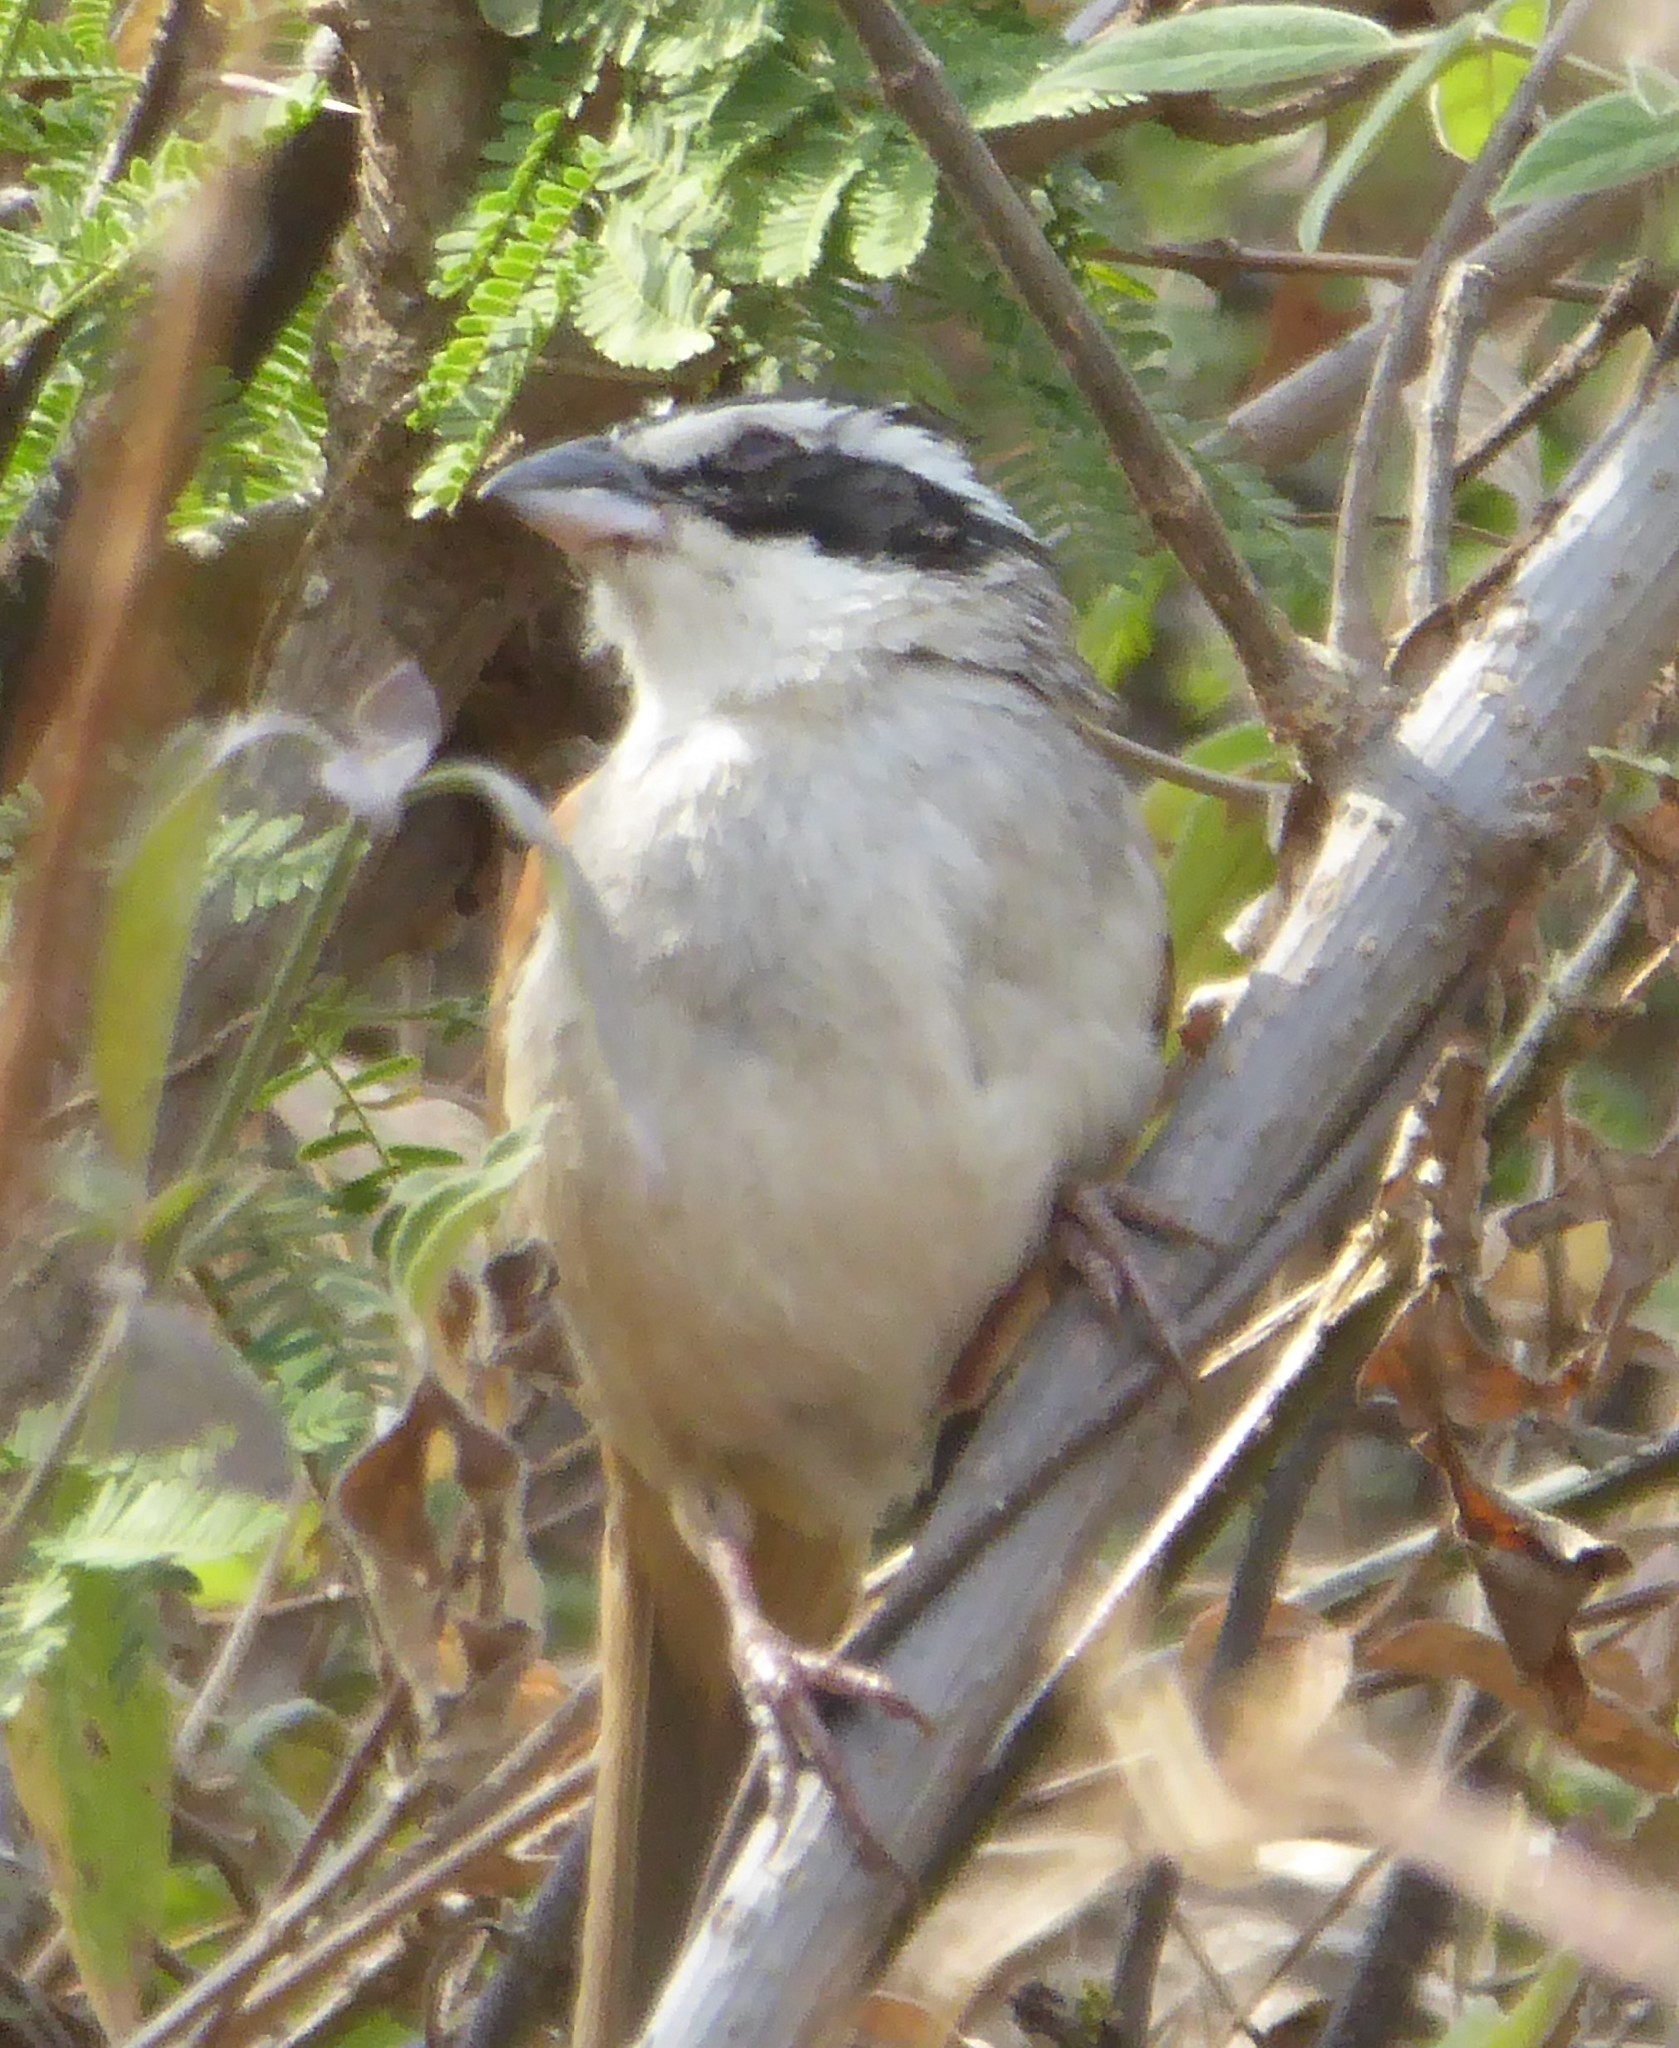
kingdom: Animalia
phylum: Chordata
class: Aves
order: Passeriformes
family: Passerellidae
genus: Peucaea
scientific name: Peucaea ruficauda
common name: Stripe-headed sparrow
